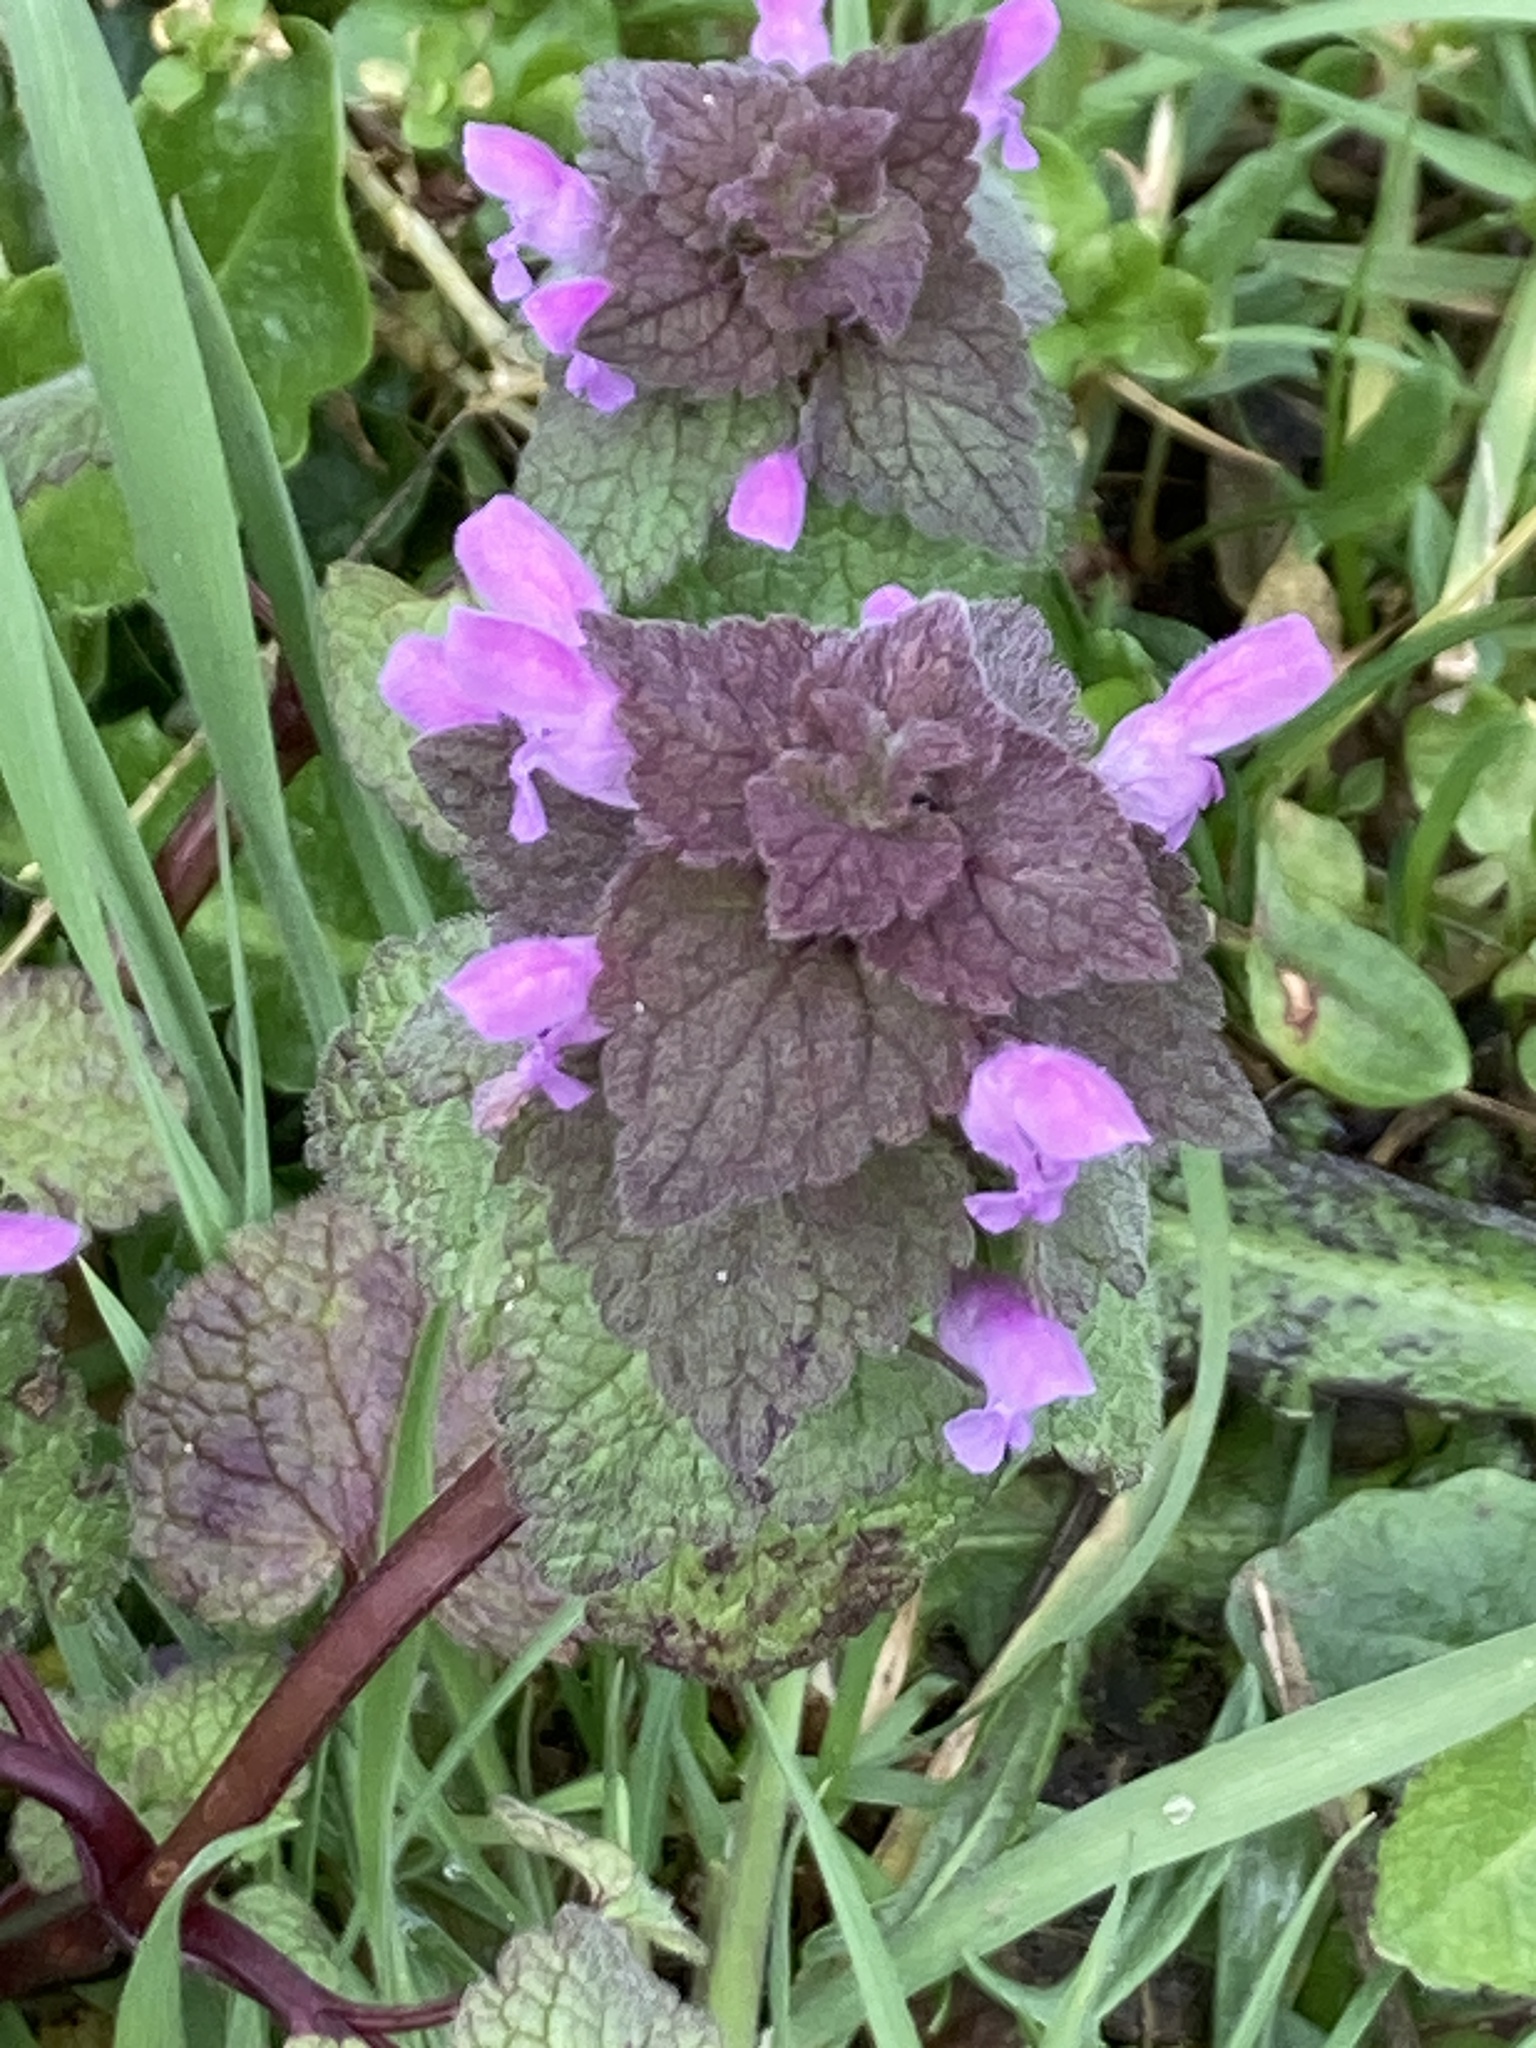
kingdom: Plantae
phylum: Tracheophyta
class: Magnoliopsida
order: Lamiales
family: Lamiaceae
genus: Lamium
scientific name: Lamium purpureum
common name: Red dead-nettle
